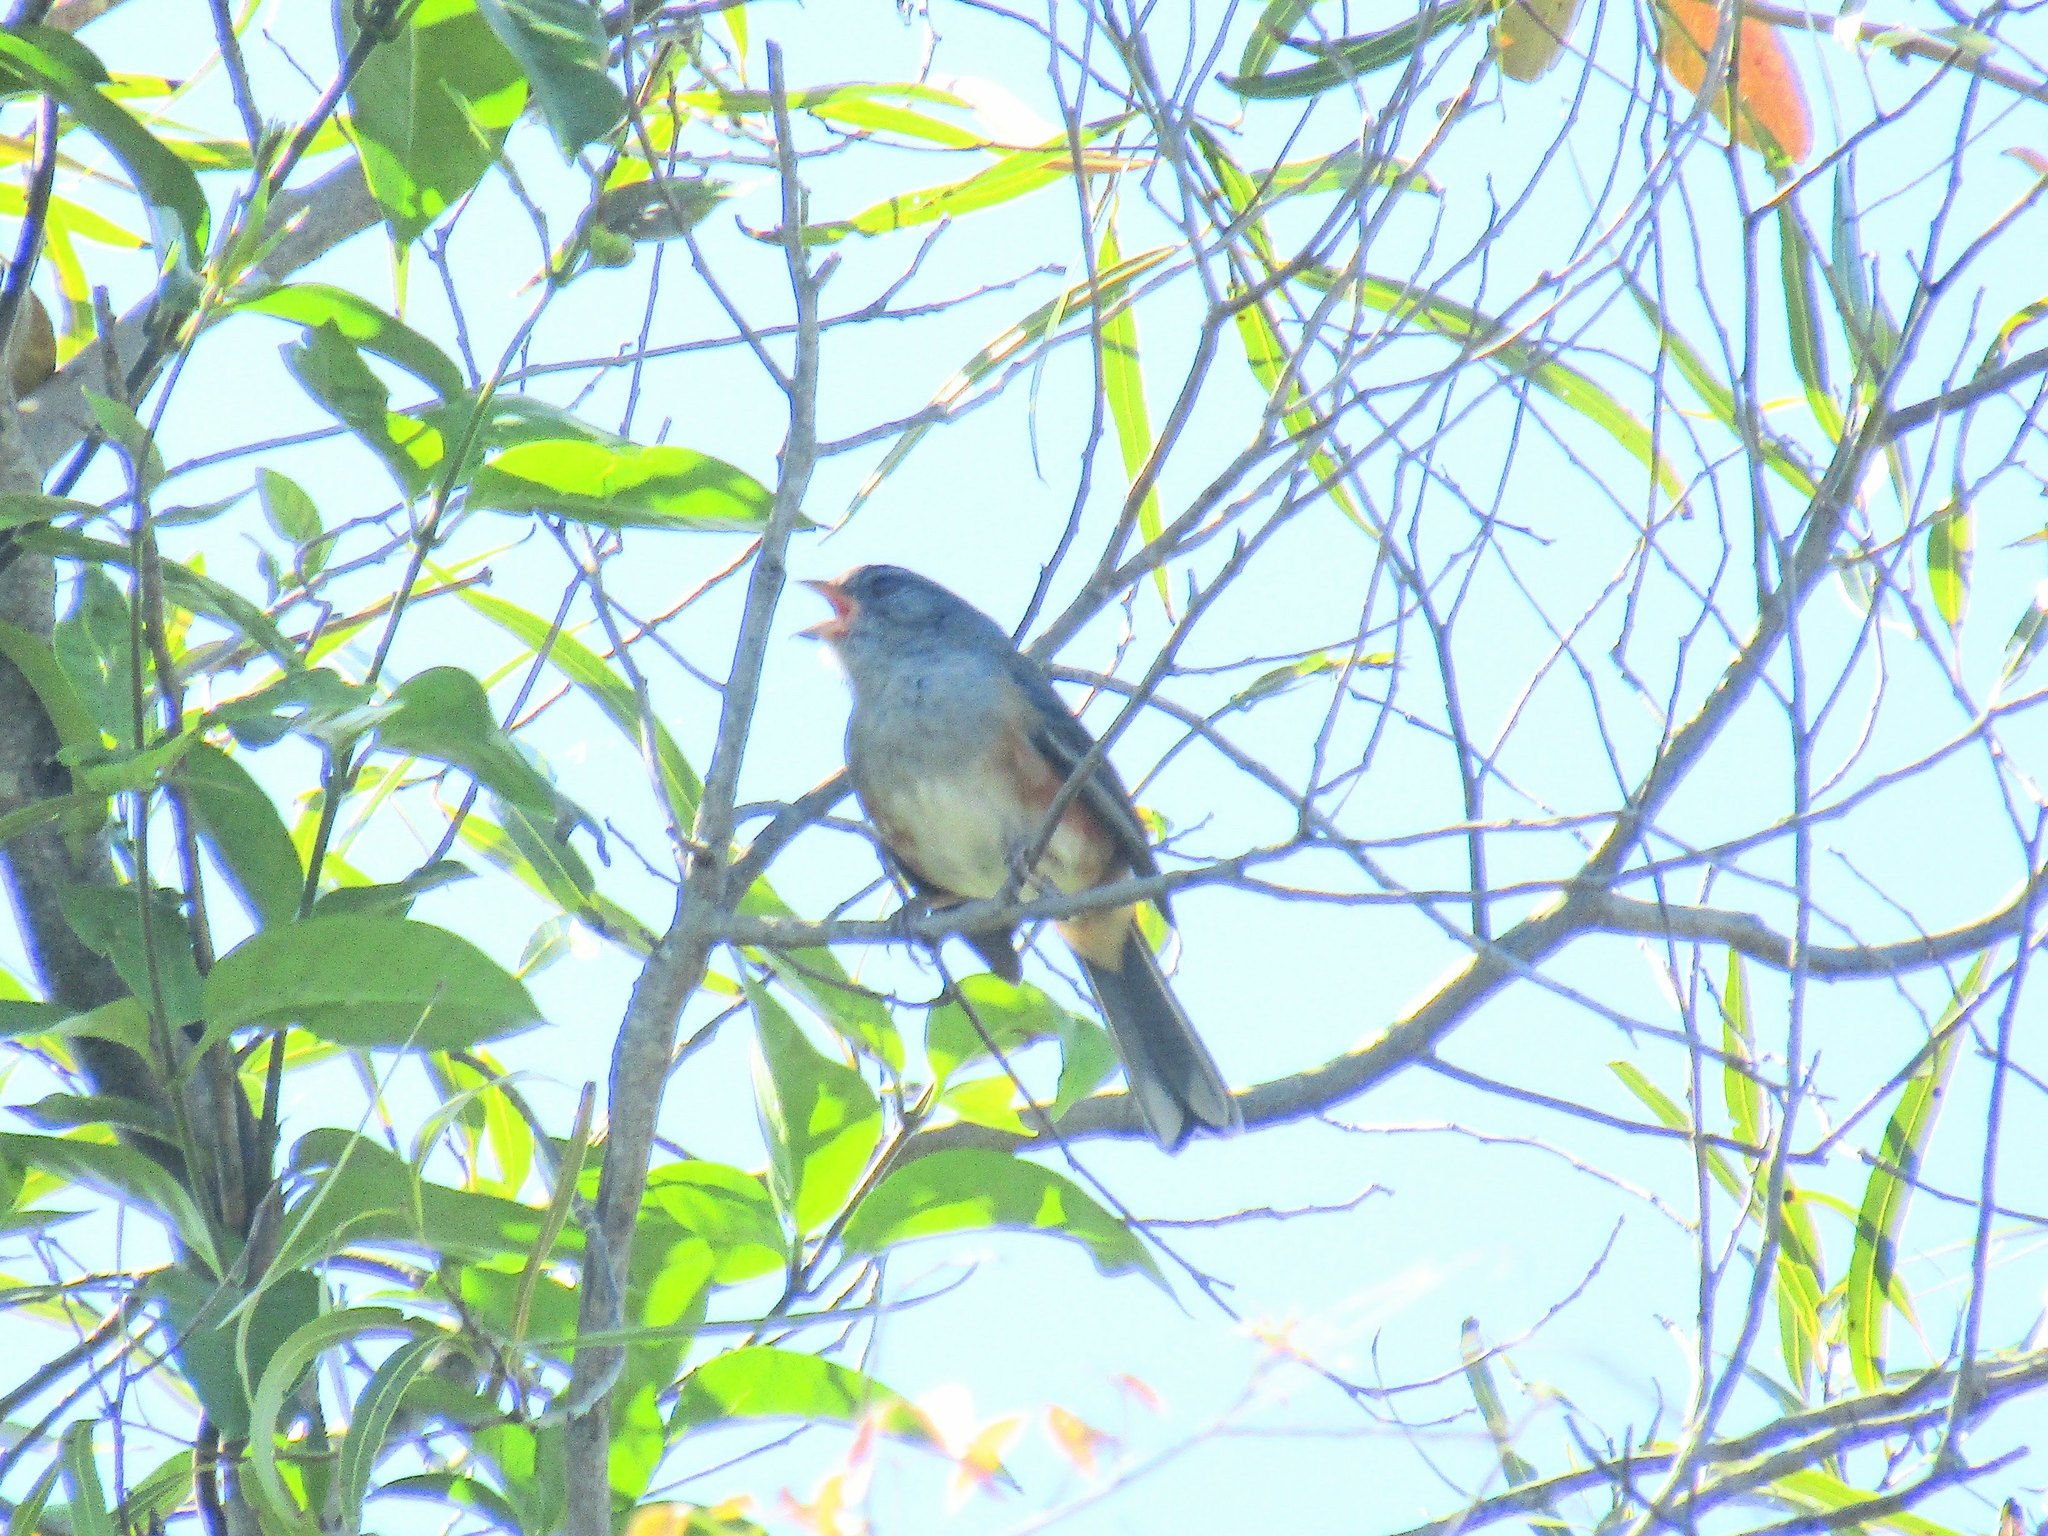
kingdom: Animalia
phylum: Chordata
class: Aves
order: Passeriformes
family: Thraupidae
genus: Microspingus
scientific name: Microspingus cabanisi
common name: Gray-throated warbling-finch
